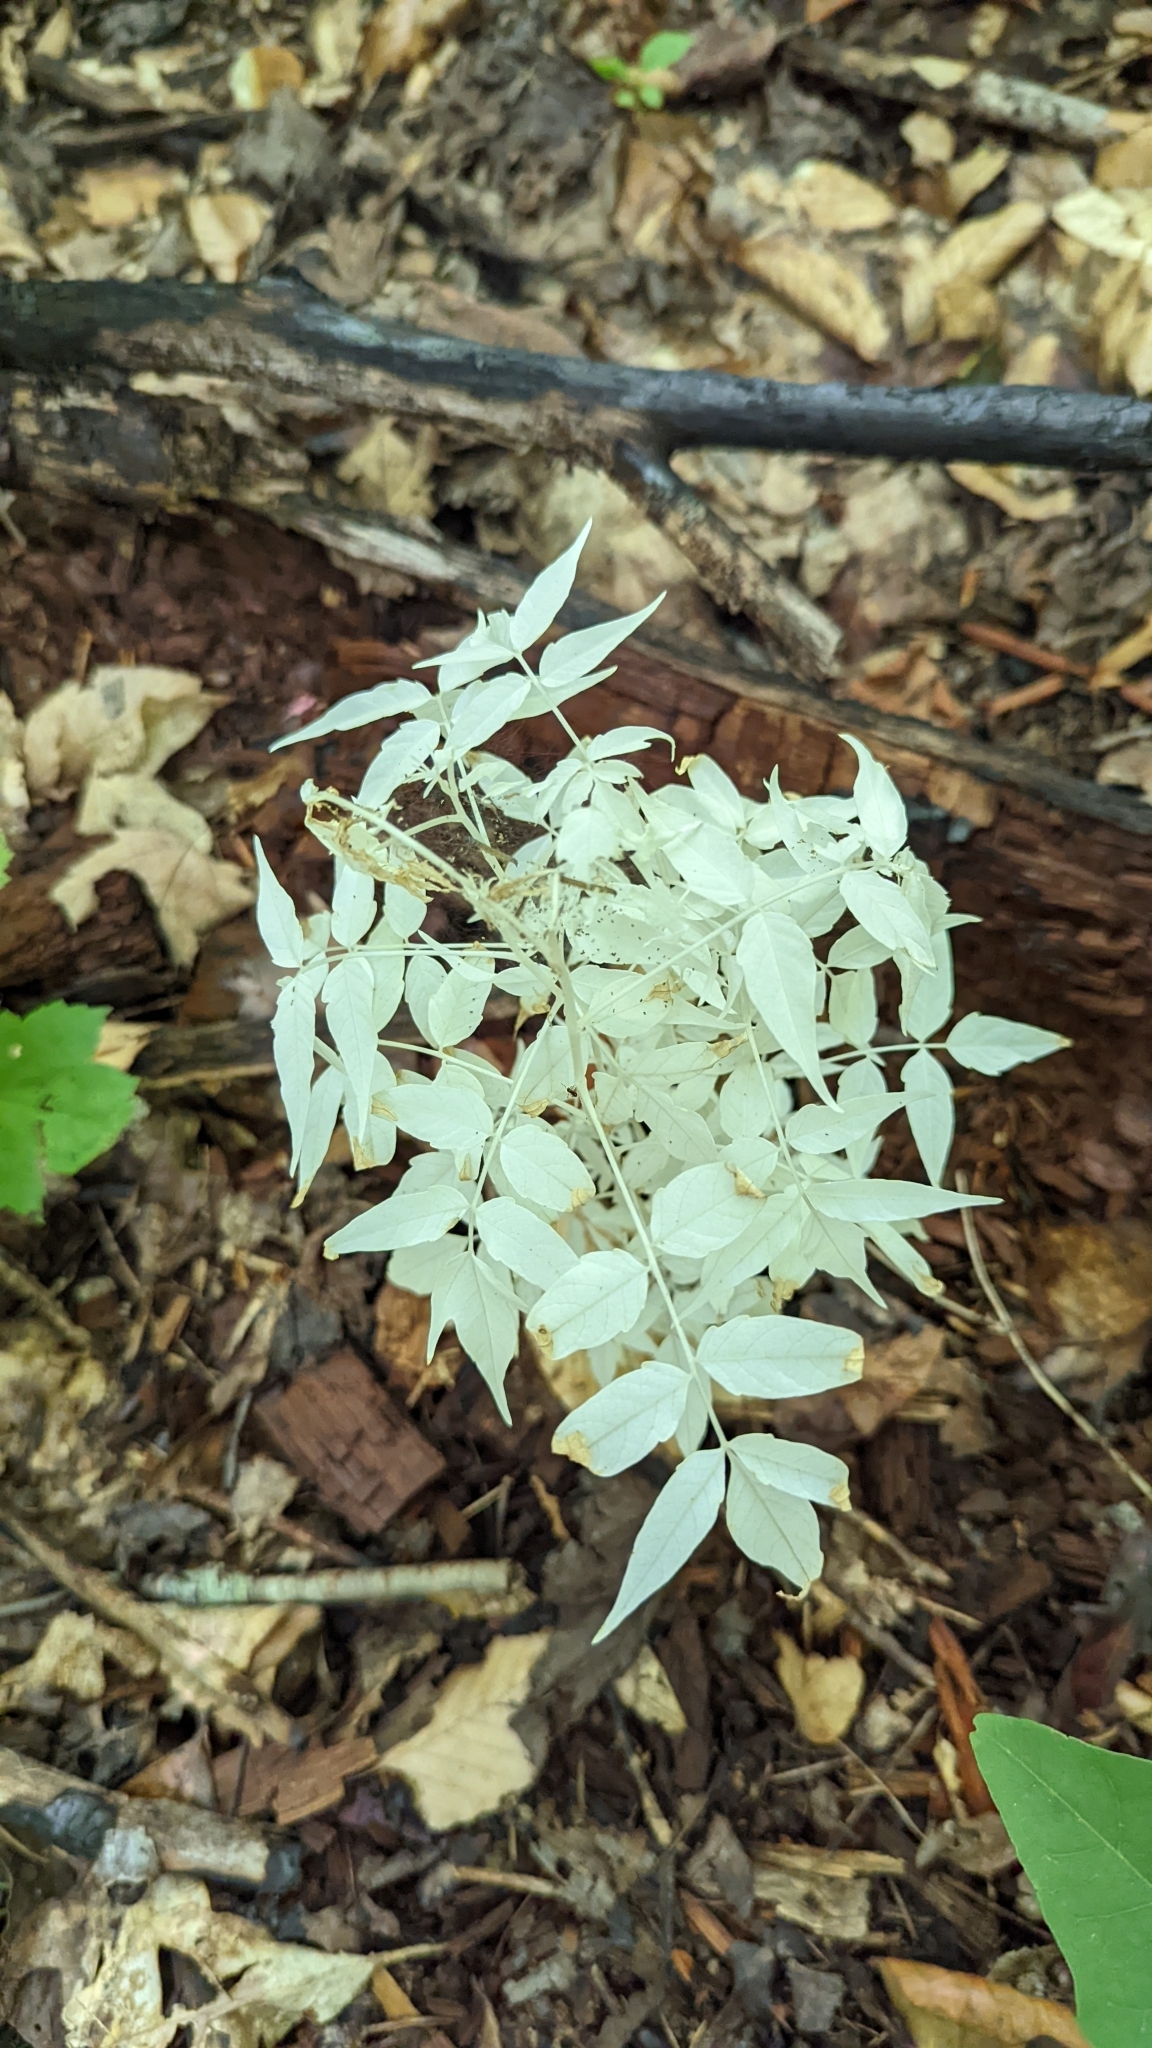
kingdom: Plantae
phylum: Tracheophyta
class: Magnoliopsida
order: Sapindales
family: Simaroubaceae
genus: Ailanthus
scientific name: Ailanthus altissima
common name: Tree-of-heaven
